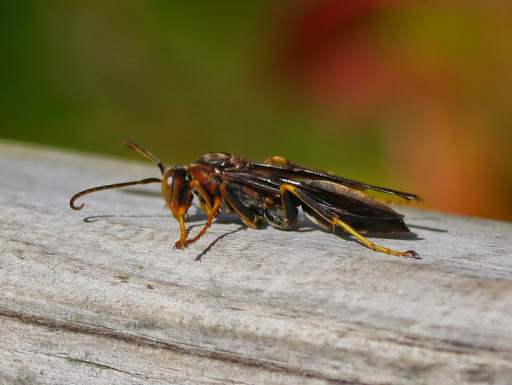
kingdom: Animalia
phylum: Arthropoda
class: Insecta
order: Hymenoptera
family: Eumenidae
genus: Polistes
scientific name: Polistes metricus
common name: Metric paper wasp
